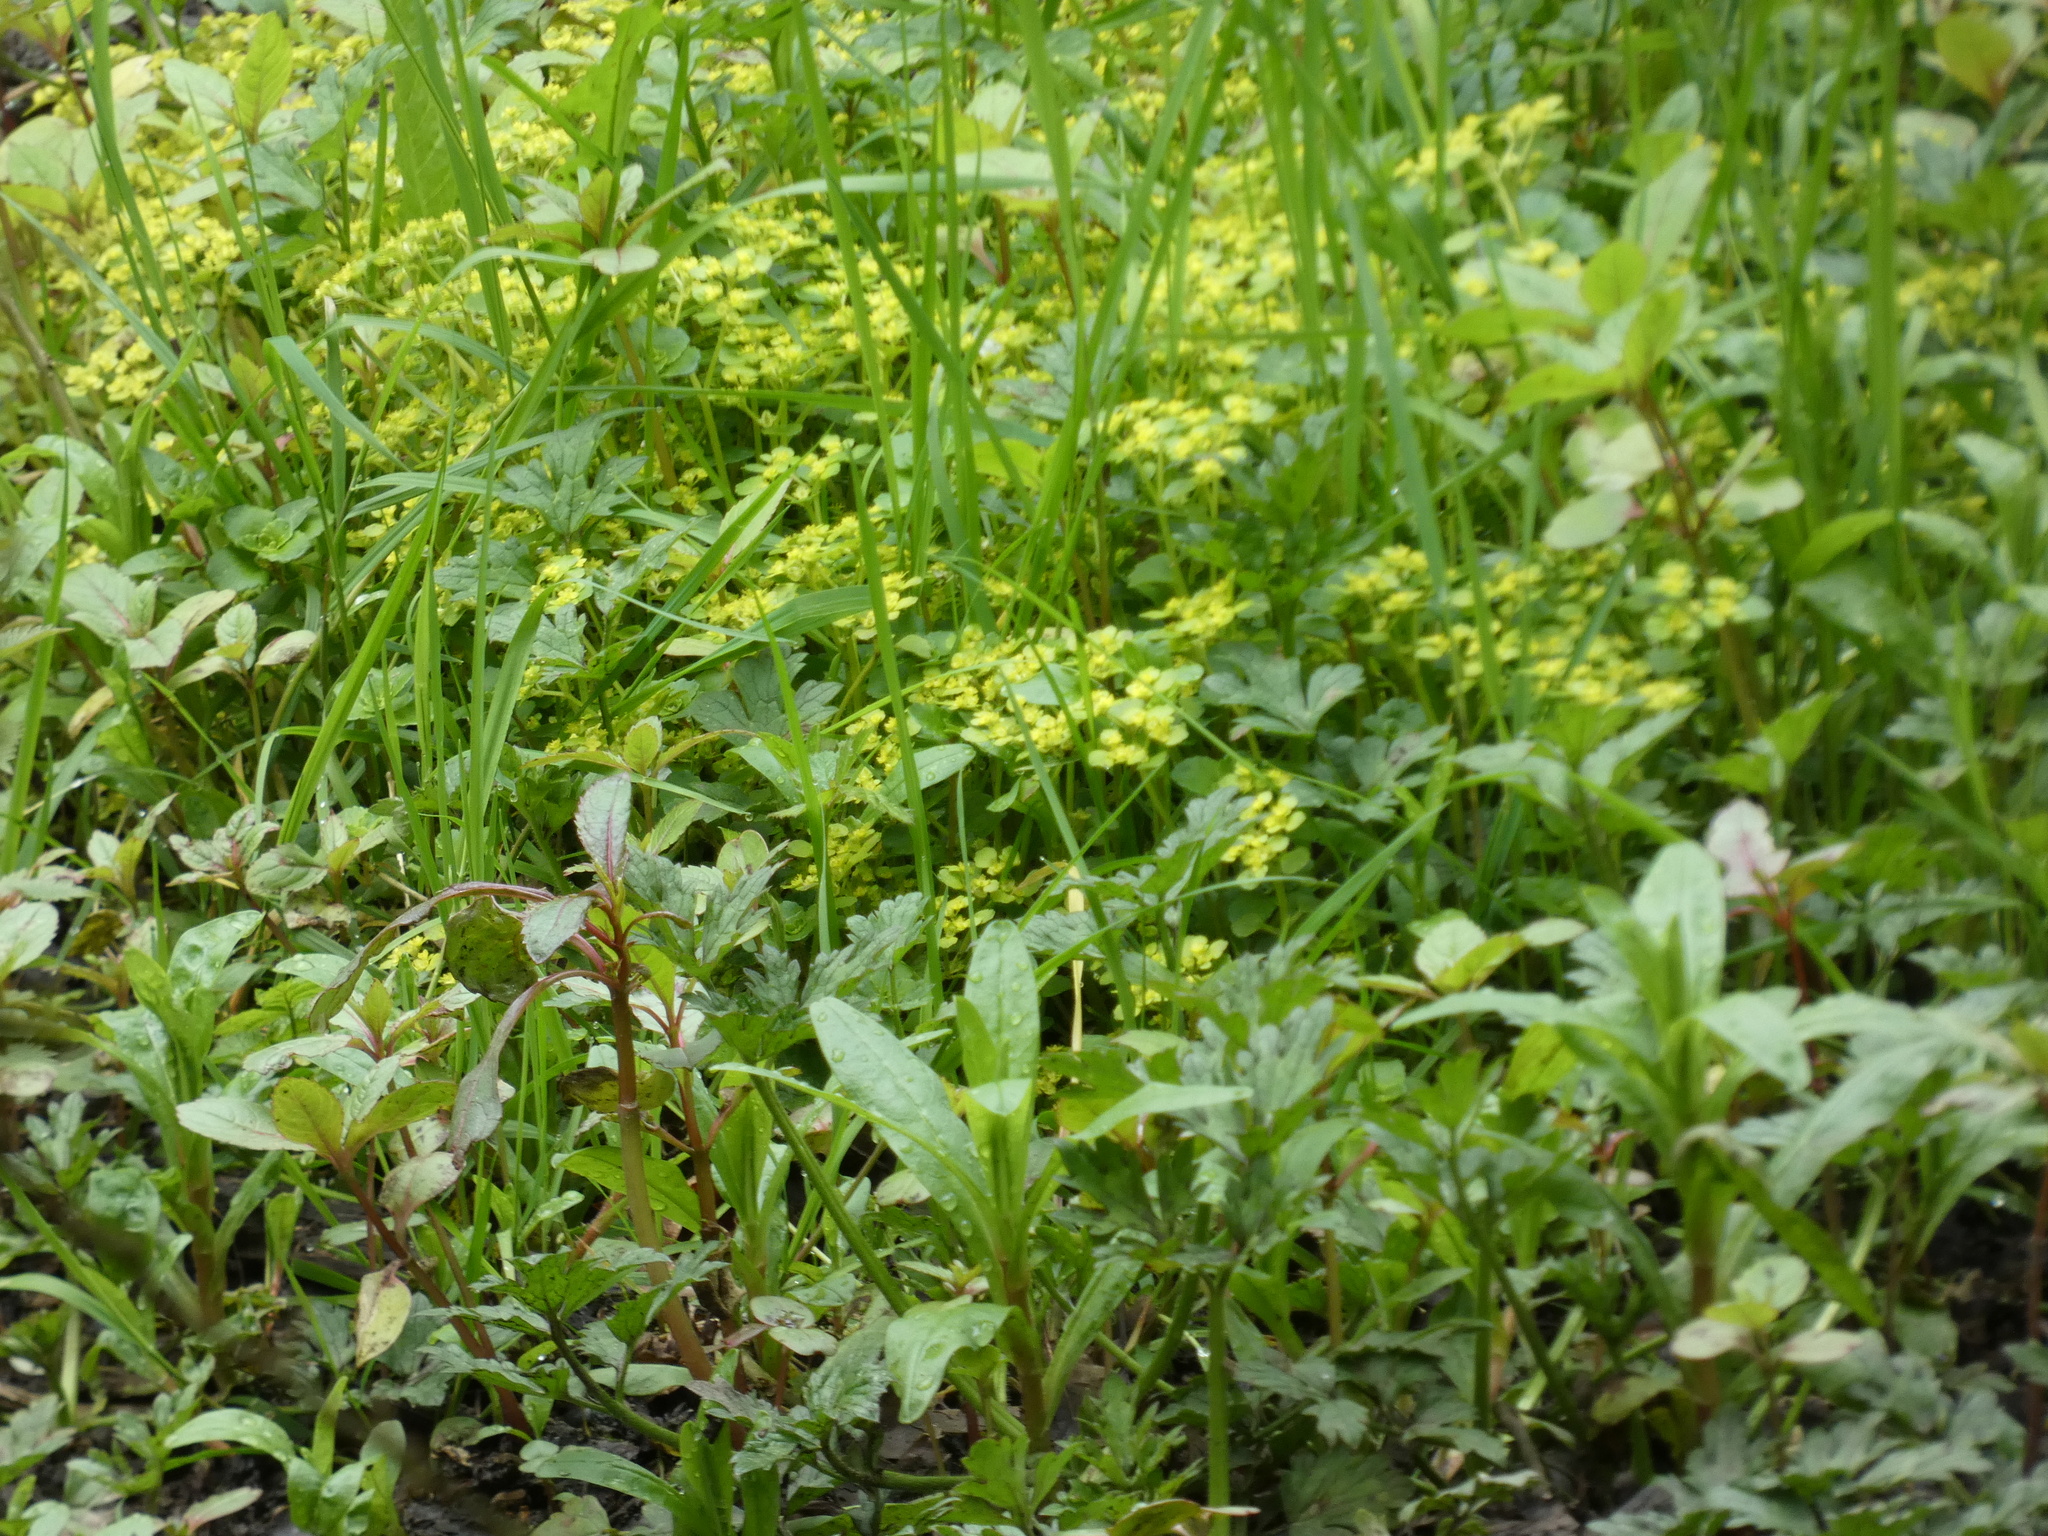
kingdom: Plantae
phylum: Tracheophyta
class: Magnoliopsida
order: Saxifragales
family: Saxifragaceae
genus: Chrysosplenium
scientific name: Chrysosplenium oppositifolium
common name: Opposite-leaved golden-saxifrage
